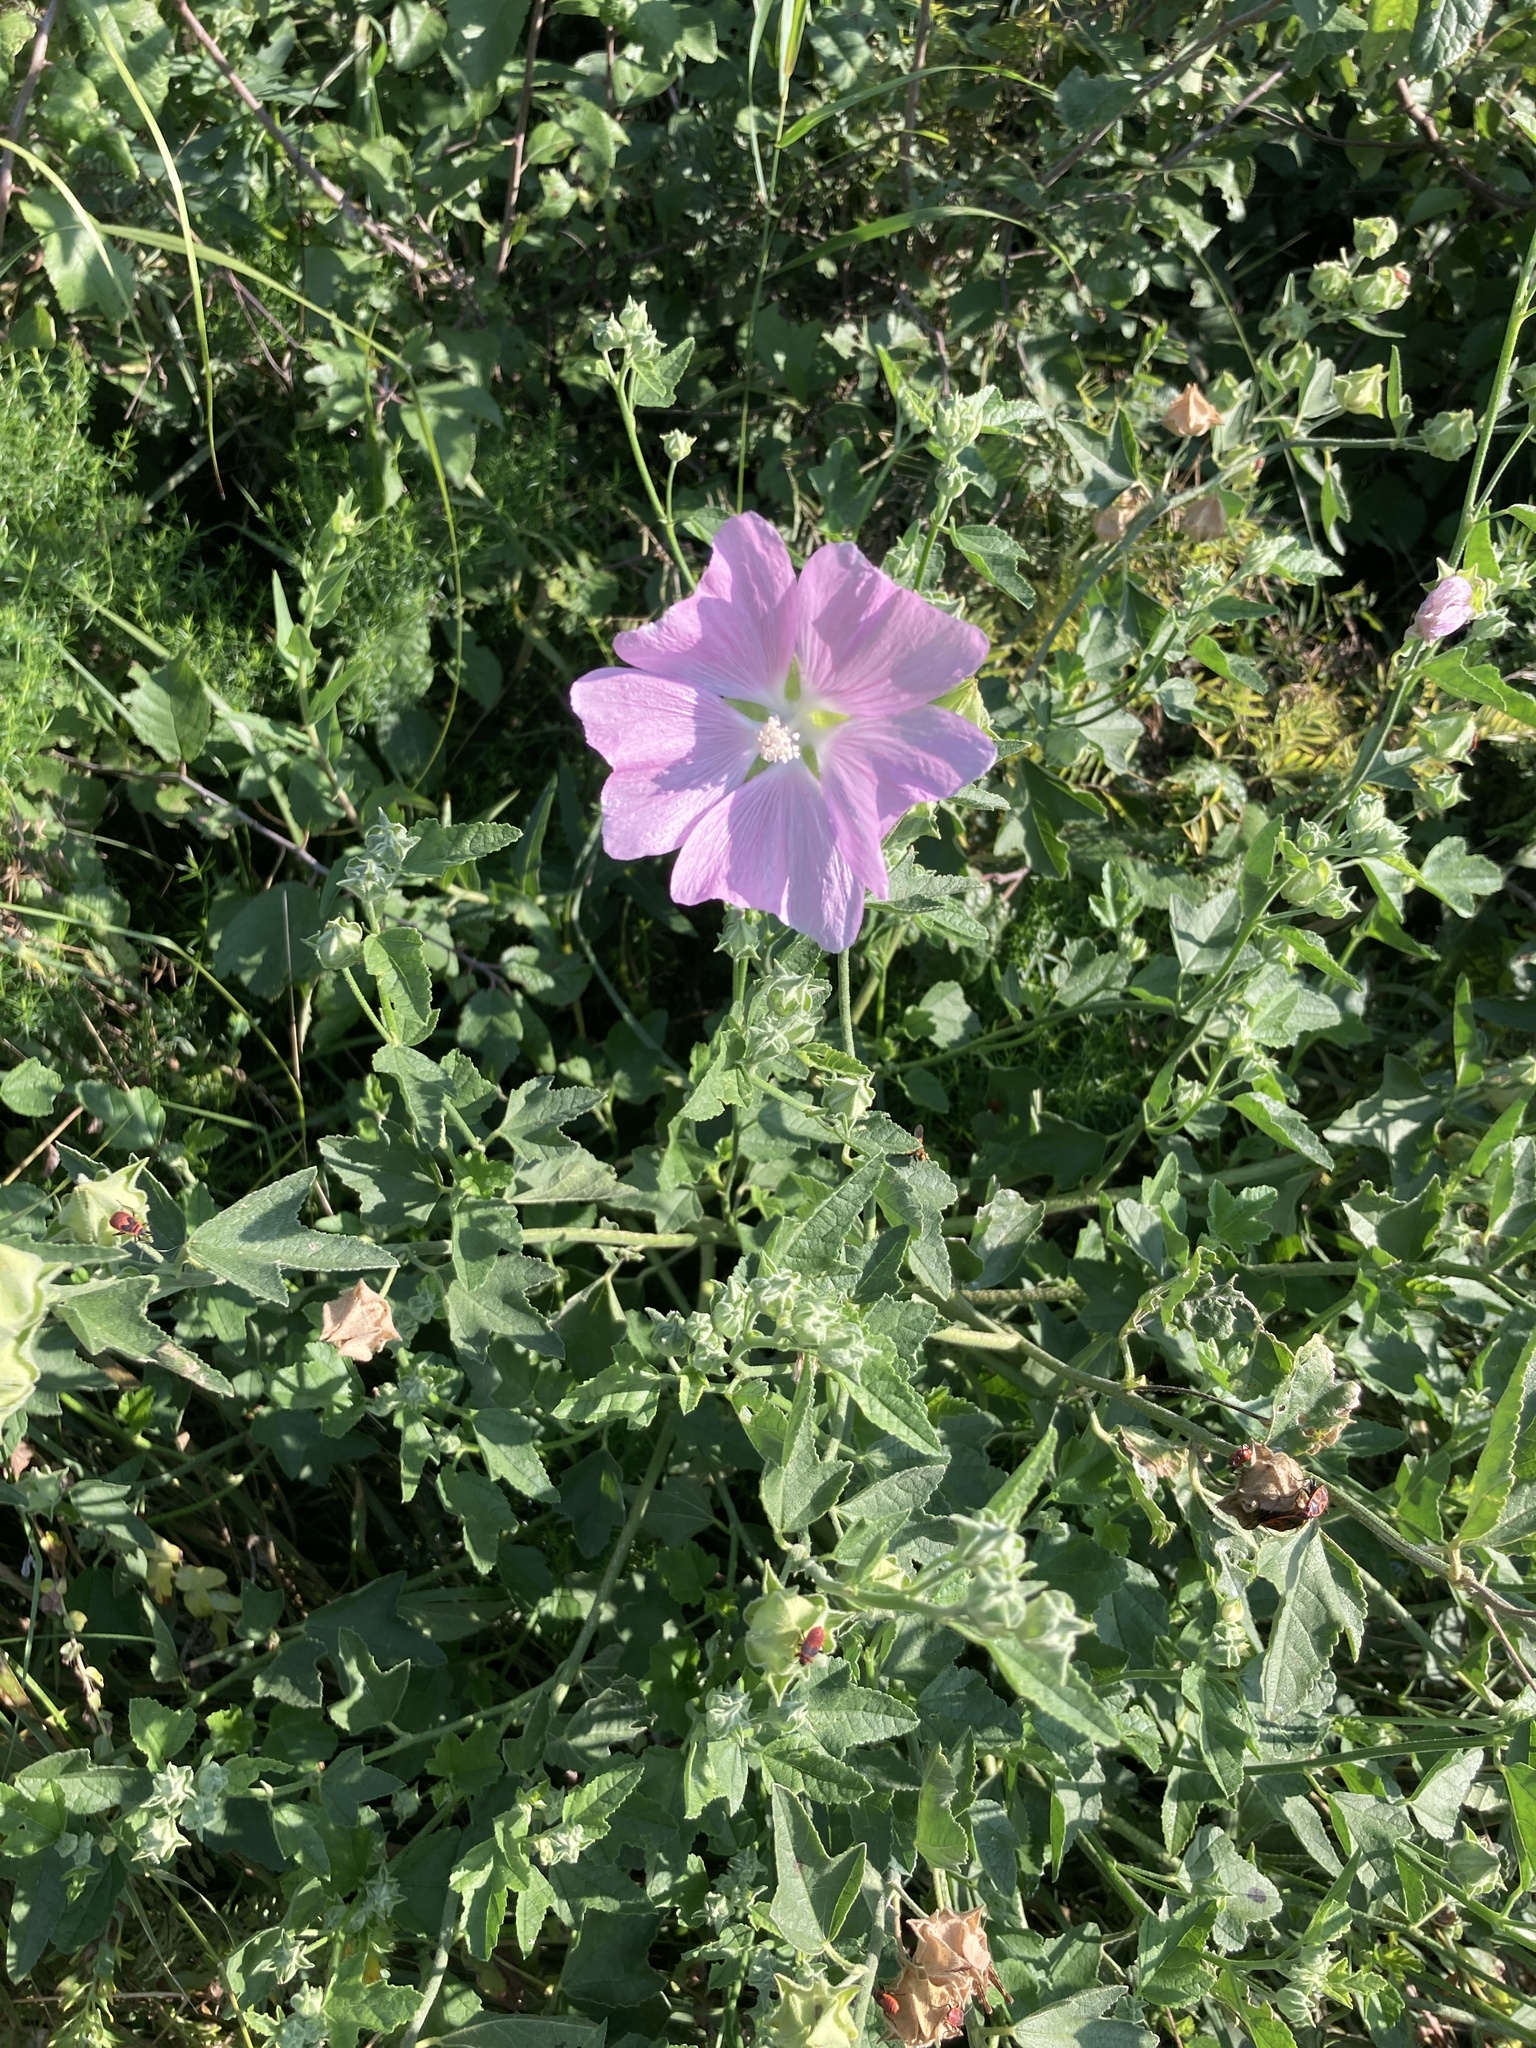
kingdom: Plantae
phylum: Tracheophyta
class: Magnoliopsida
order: Malvales
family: Malvaceae
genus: Malva
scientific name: Malva thuringiaca
